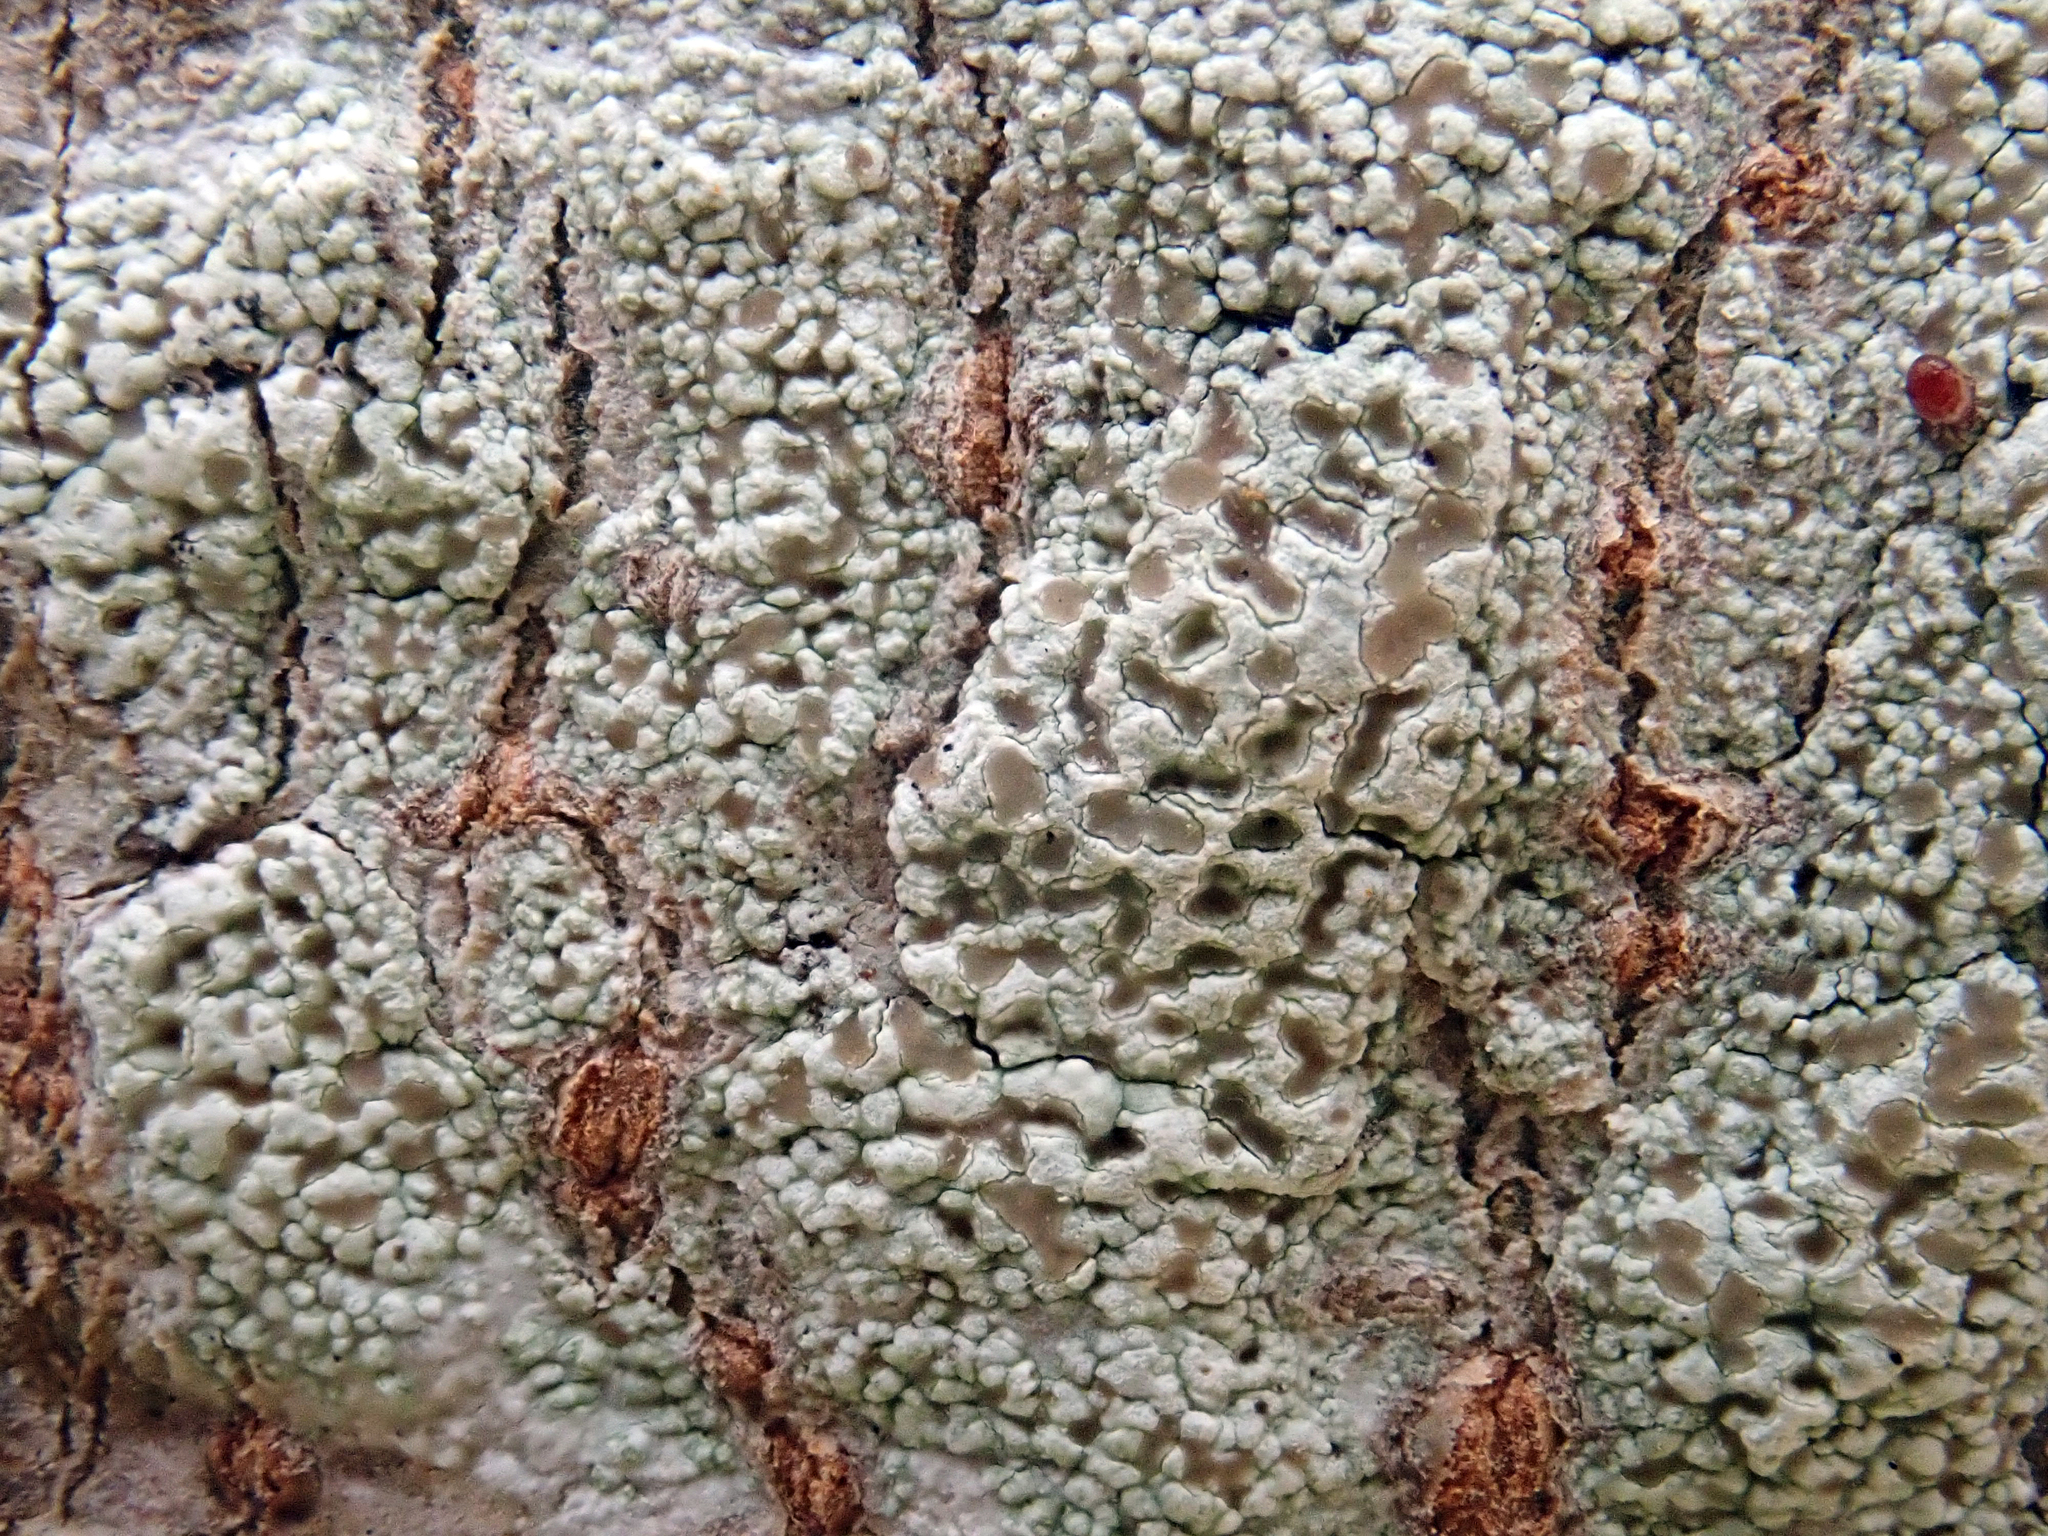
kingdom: Fungi
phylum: Ascomycota
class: Lecanoromycetes
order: Lecanorales
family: Lecanoraceae
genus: Lecanora
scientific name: Lecanora kohu
